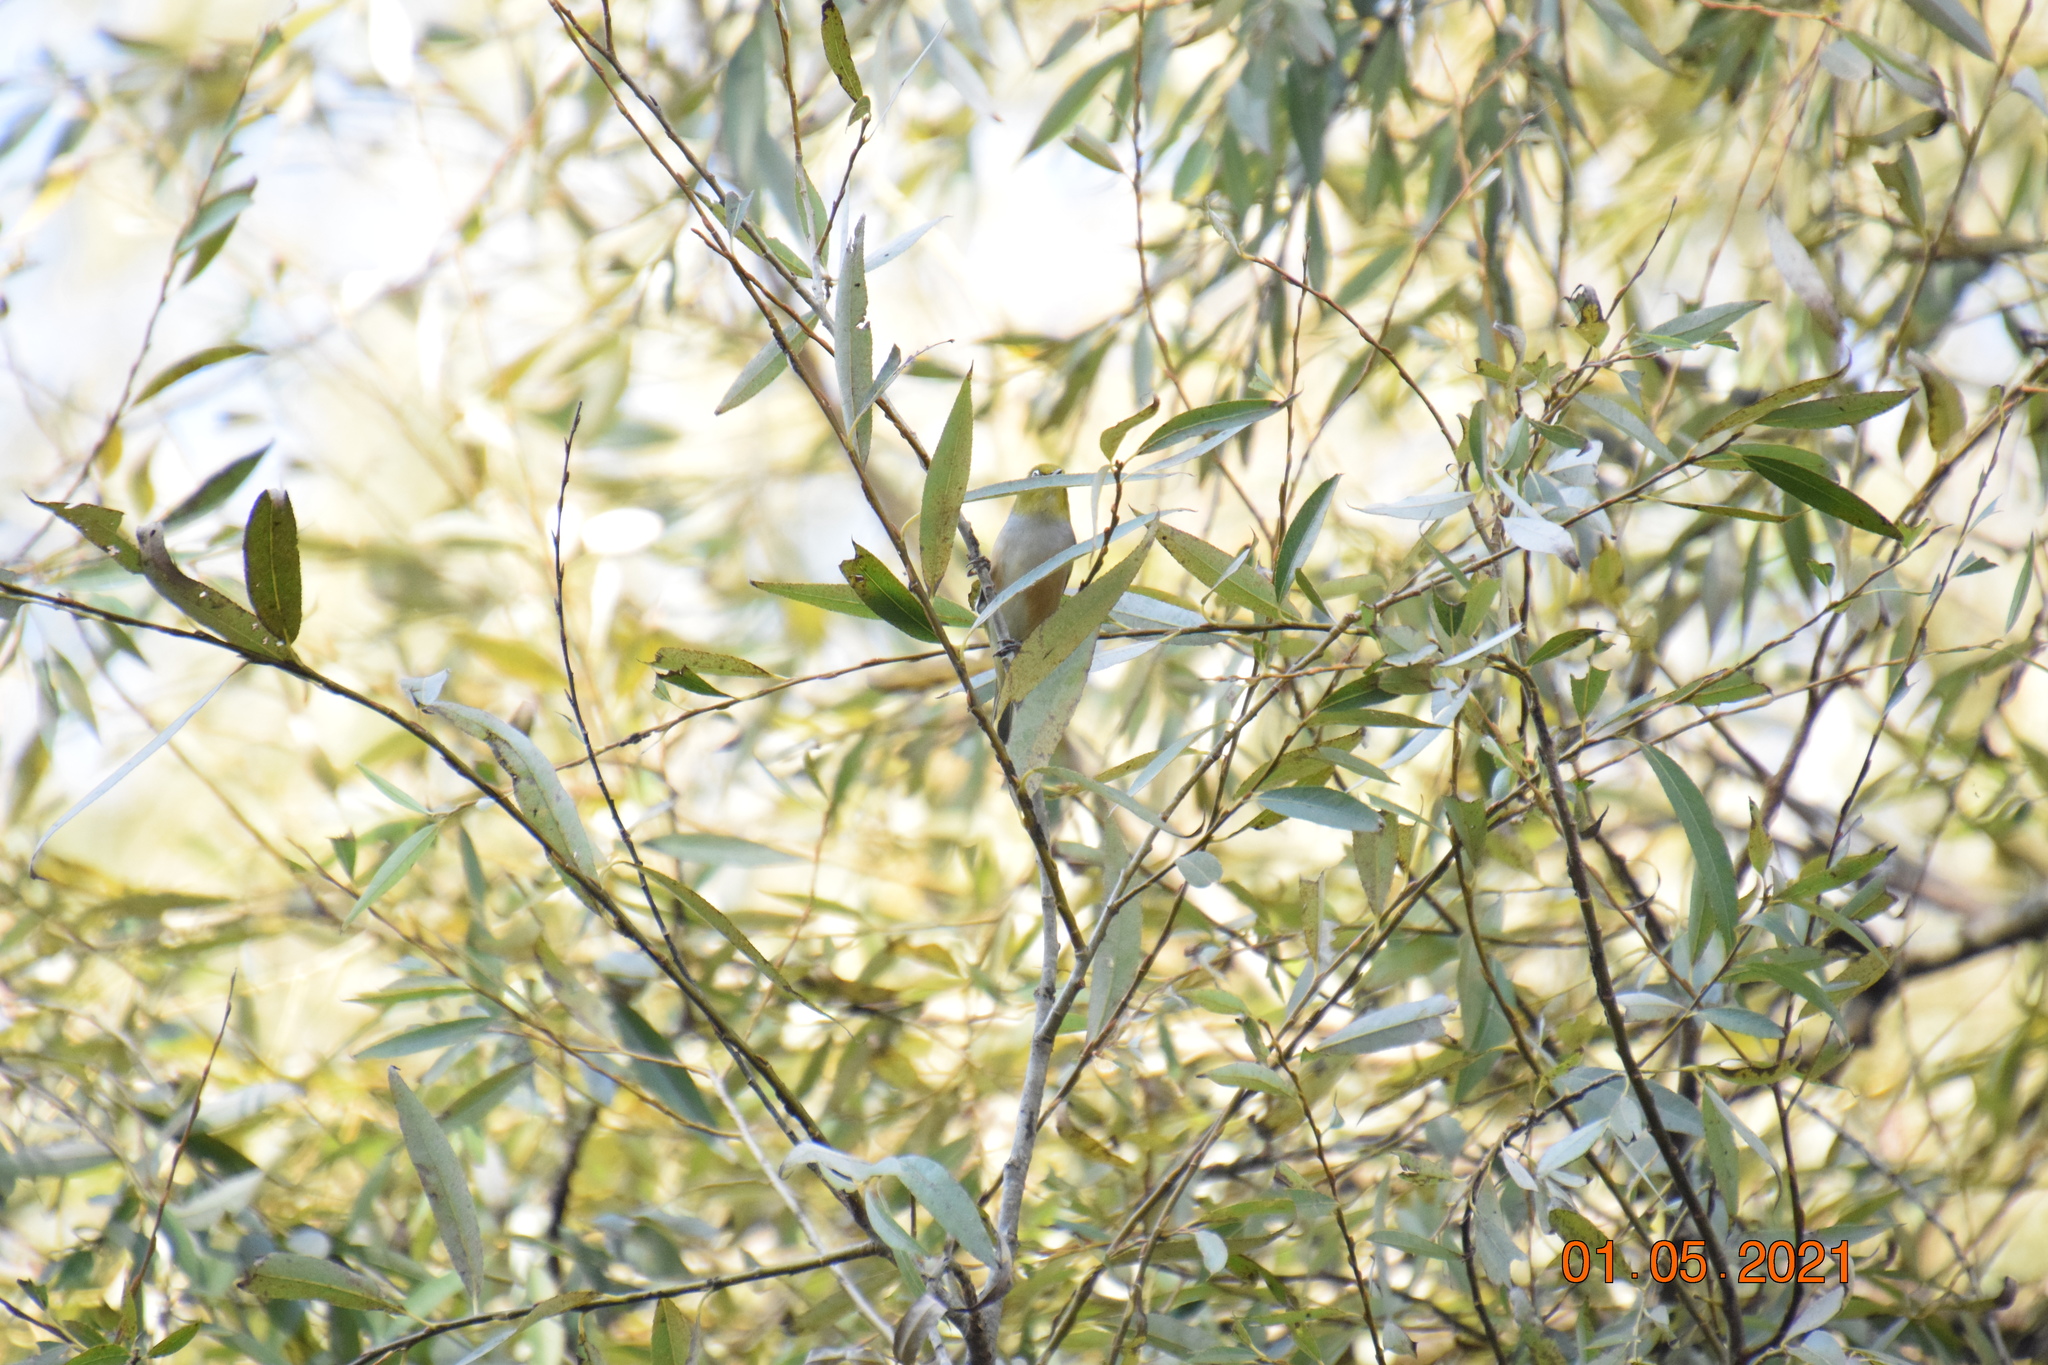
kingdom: Animalia
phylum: Chordata
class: Aves
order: Passeriformes
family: Zosteropidae
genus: Zosterops
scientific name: Zosterops lateralis
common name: Silvereye
